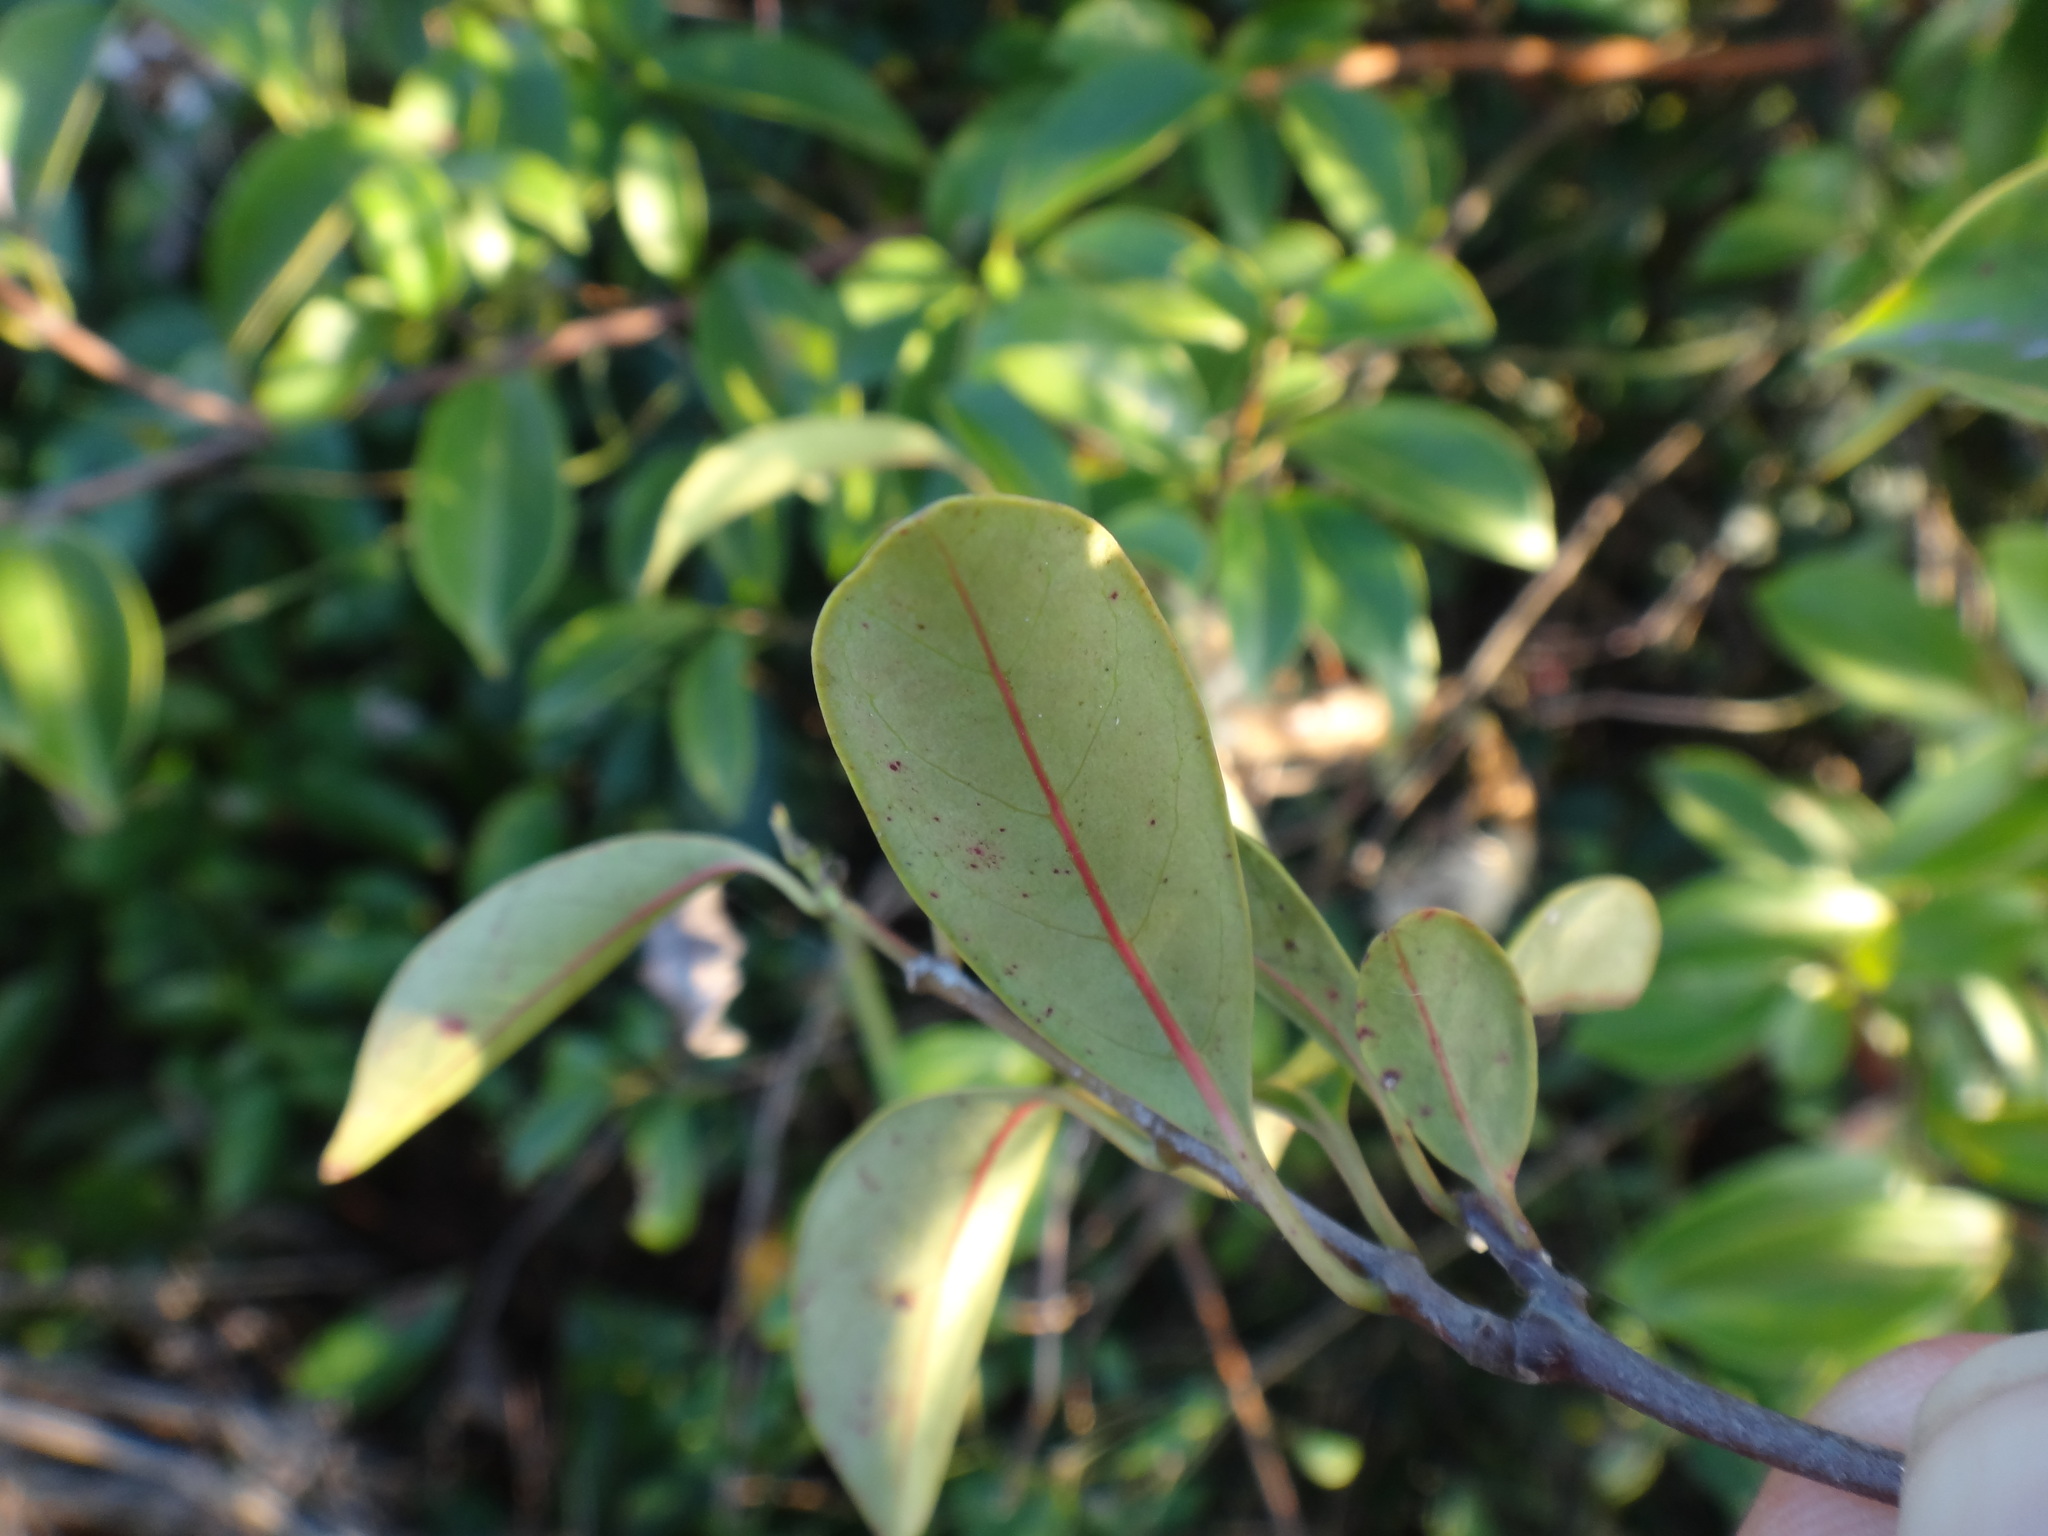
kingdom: Plantae
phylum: Tracheophyta
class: Magnoliopsida
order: Gentianales
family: Apocynaceae
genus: Urceola
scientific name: Urceola rosea
